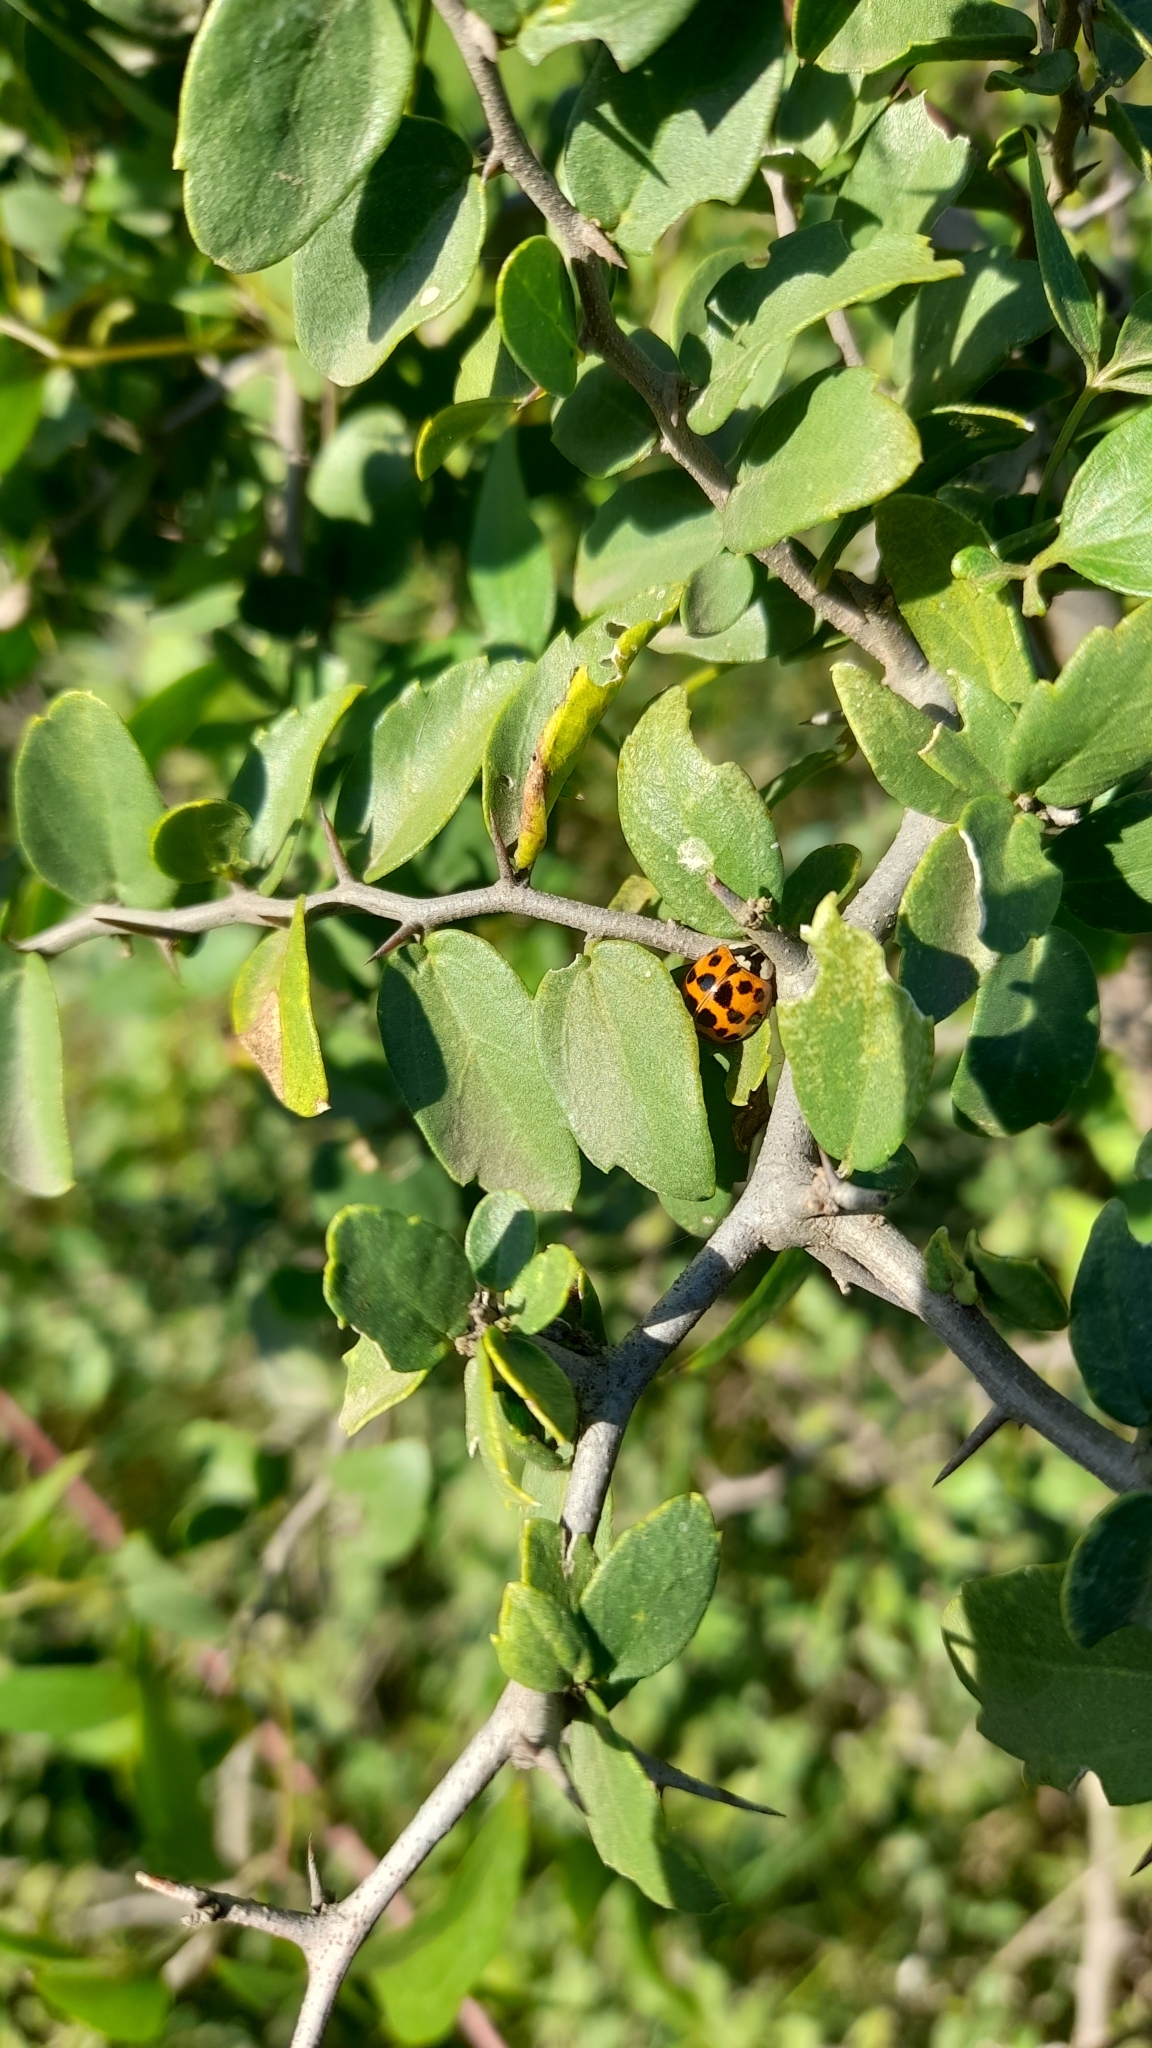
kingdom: Animalia
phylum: Arthropoda
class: Insecta
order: Coleoptera
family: Coccinellidae
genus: Harmonia
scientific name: Harmonia axyridis
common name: Harlequin ladybird
